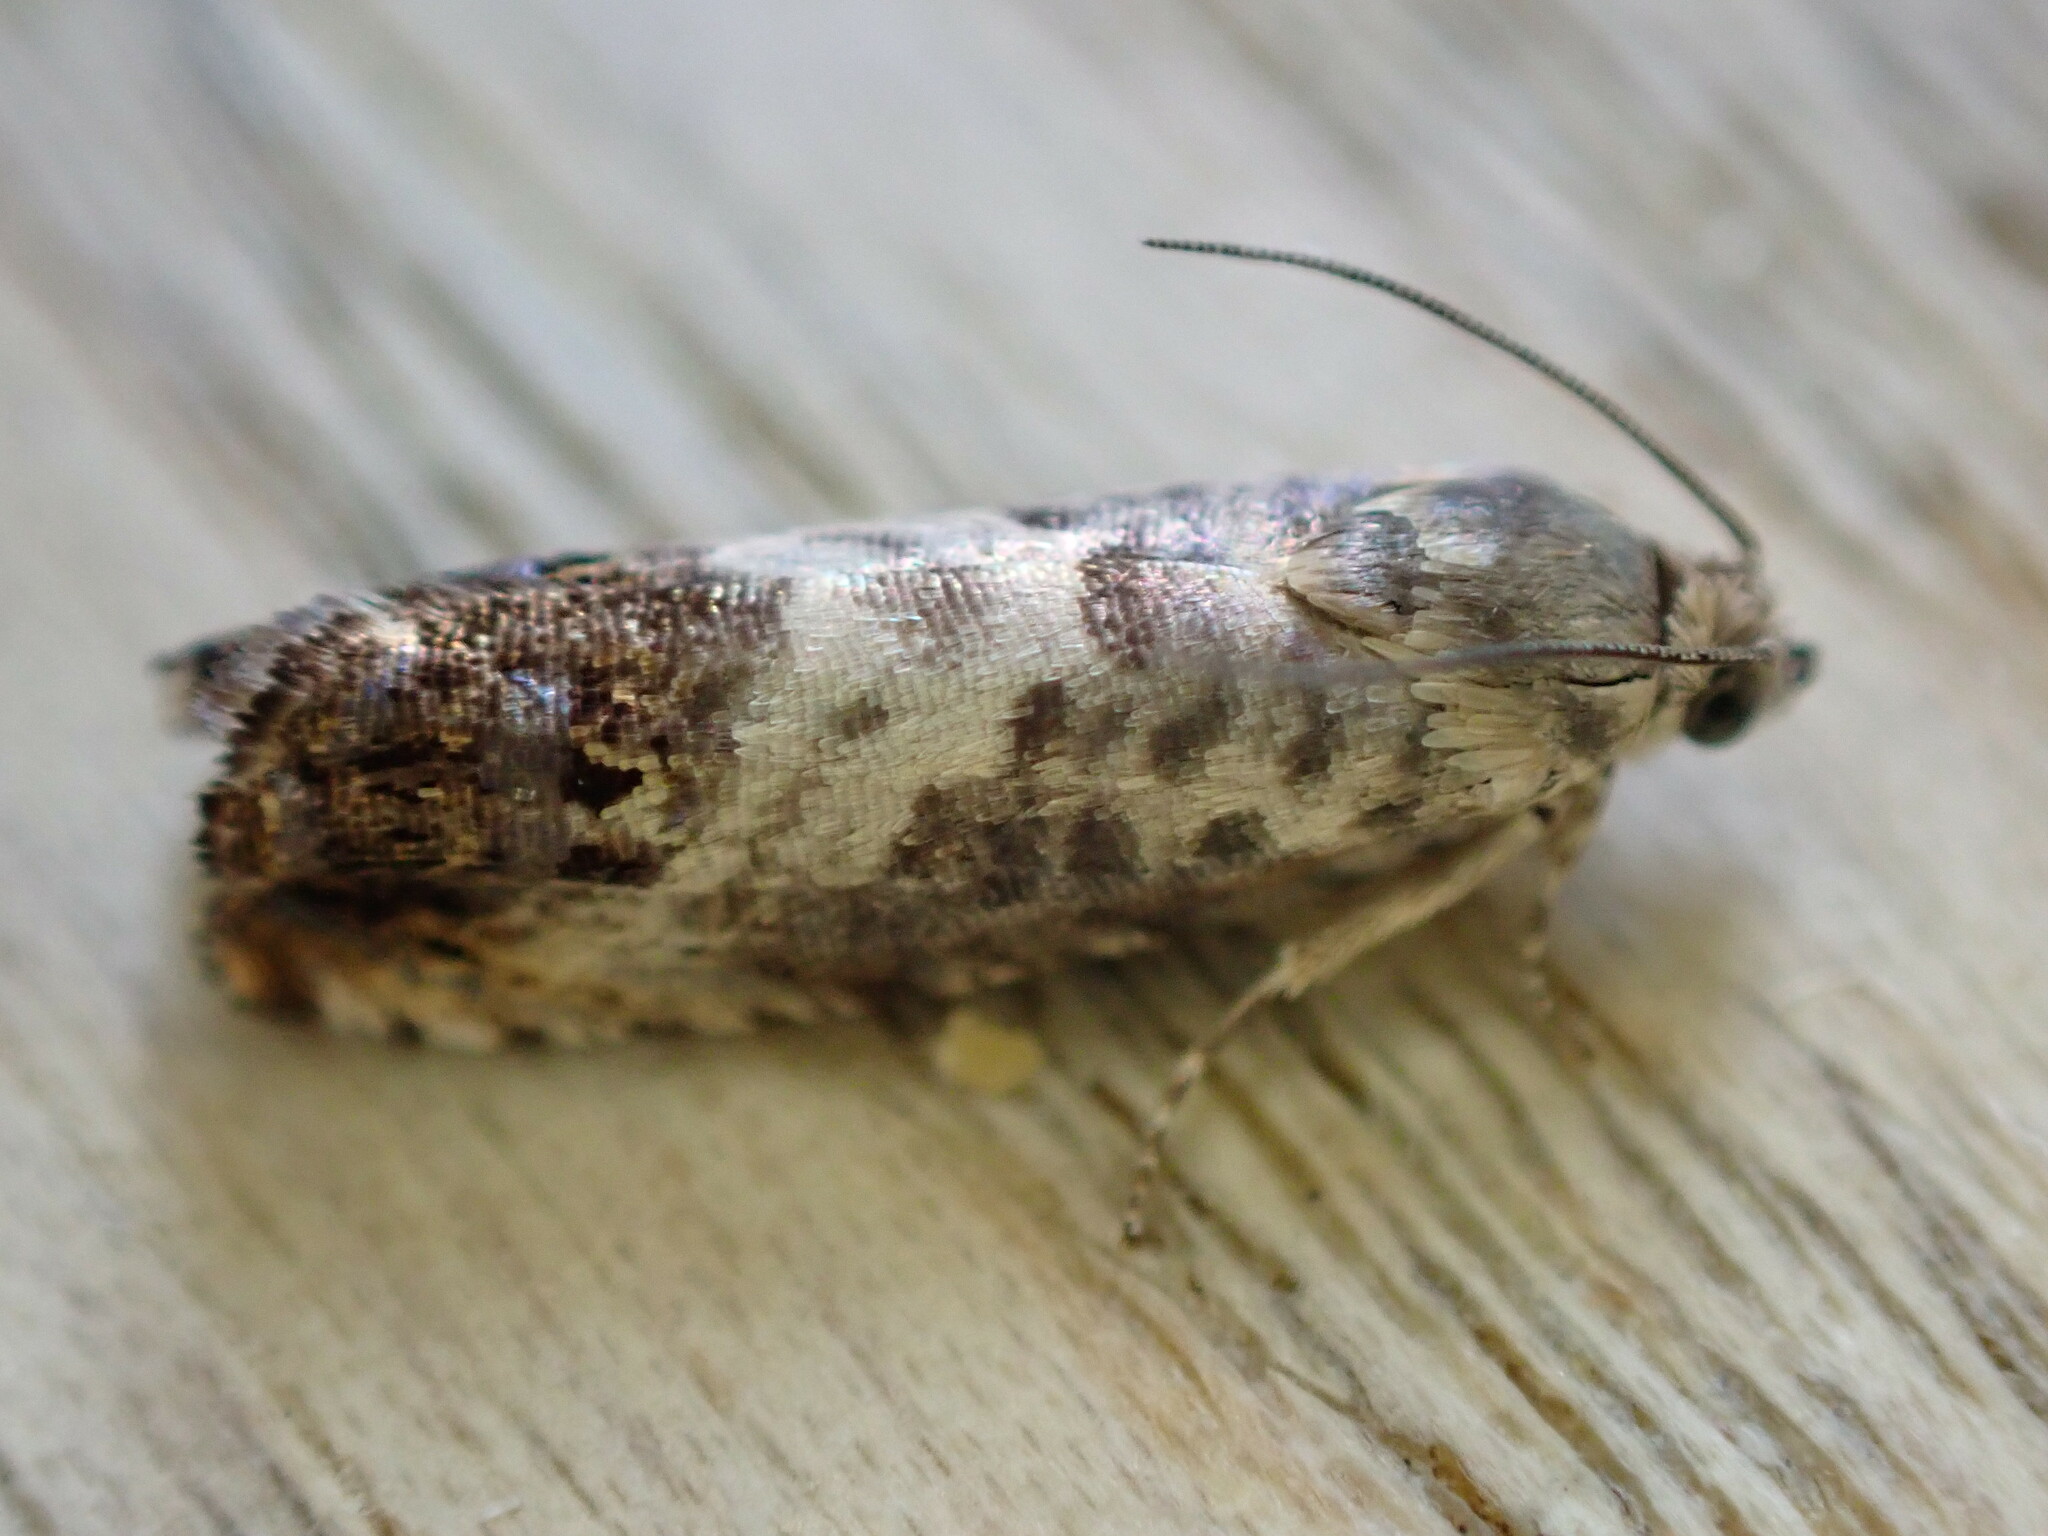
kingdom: Animalia
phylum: Arthropoda
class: Insecta
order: Lepidoptera
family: Tortricidae
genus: Pammene
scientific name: Pammene fasciana
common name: Acorn piercer
